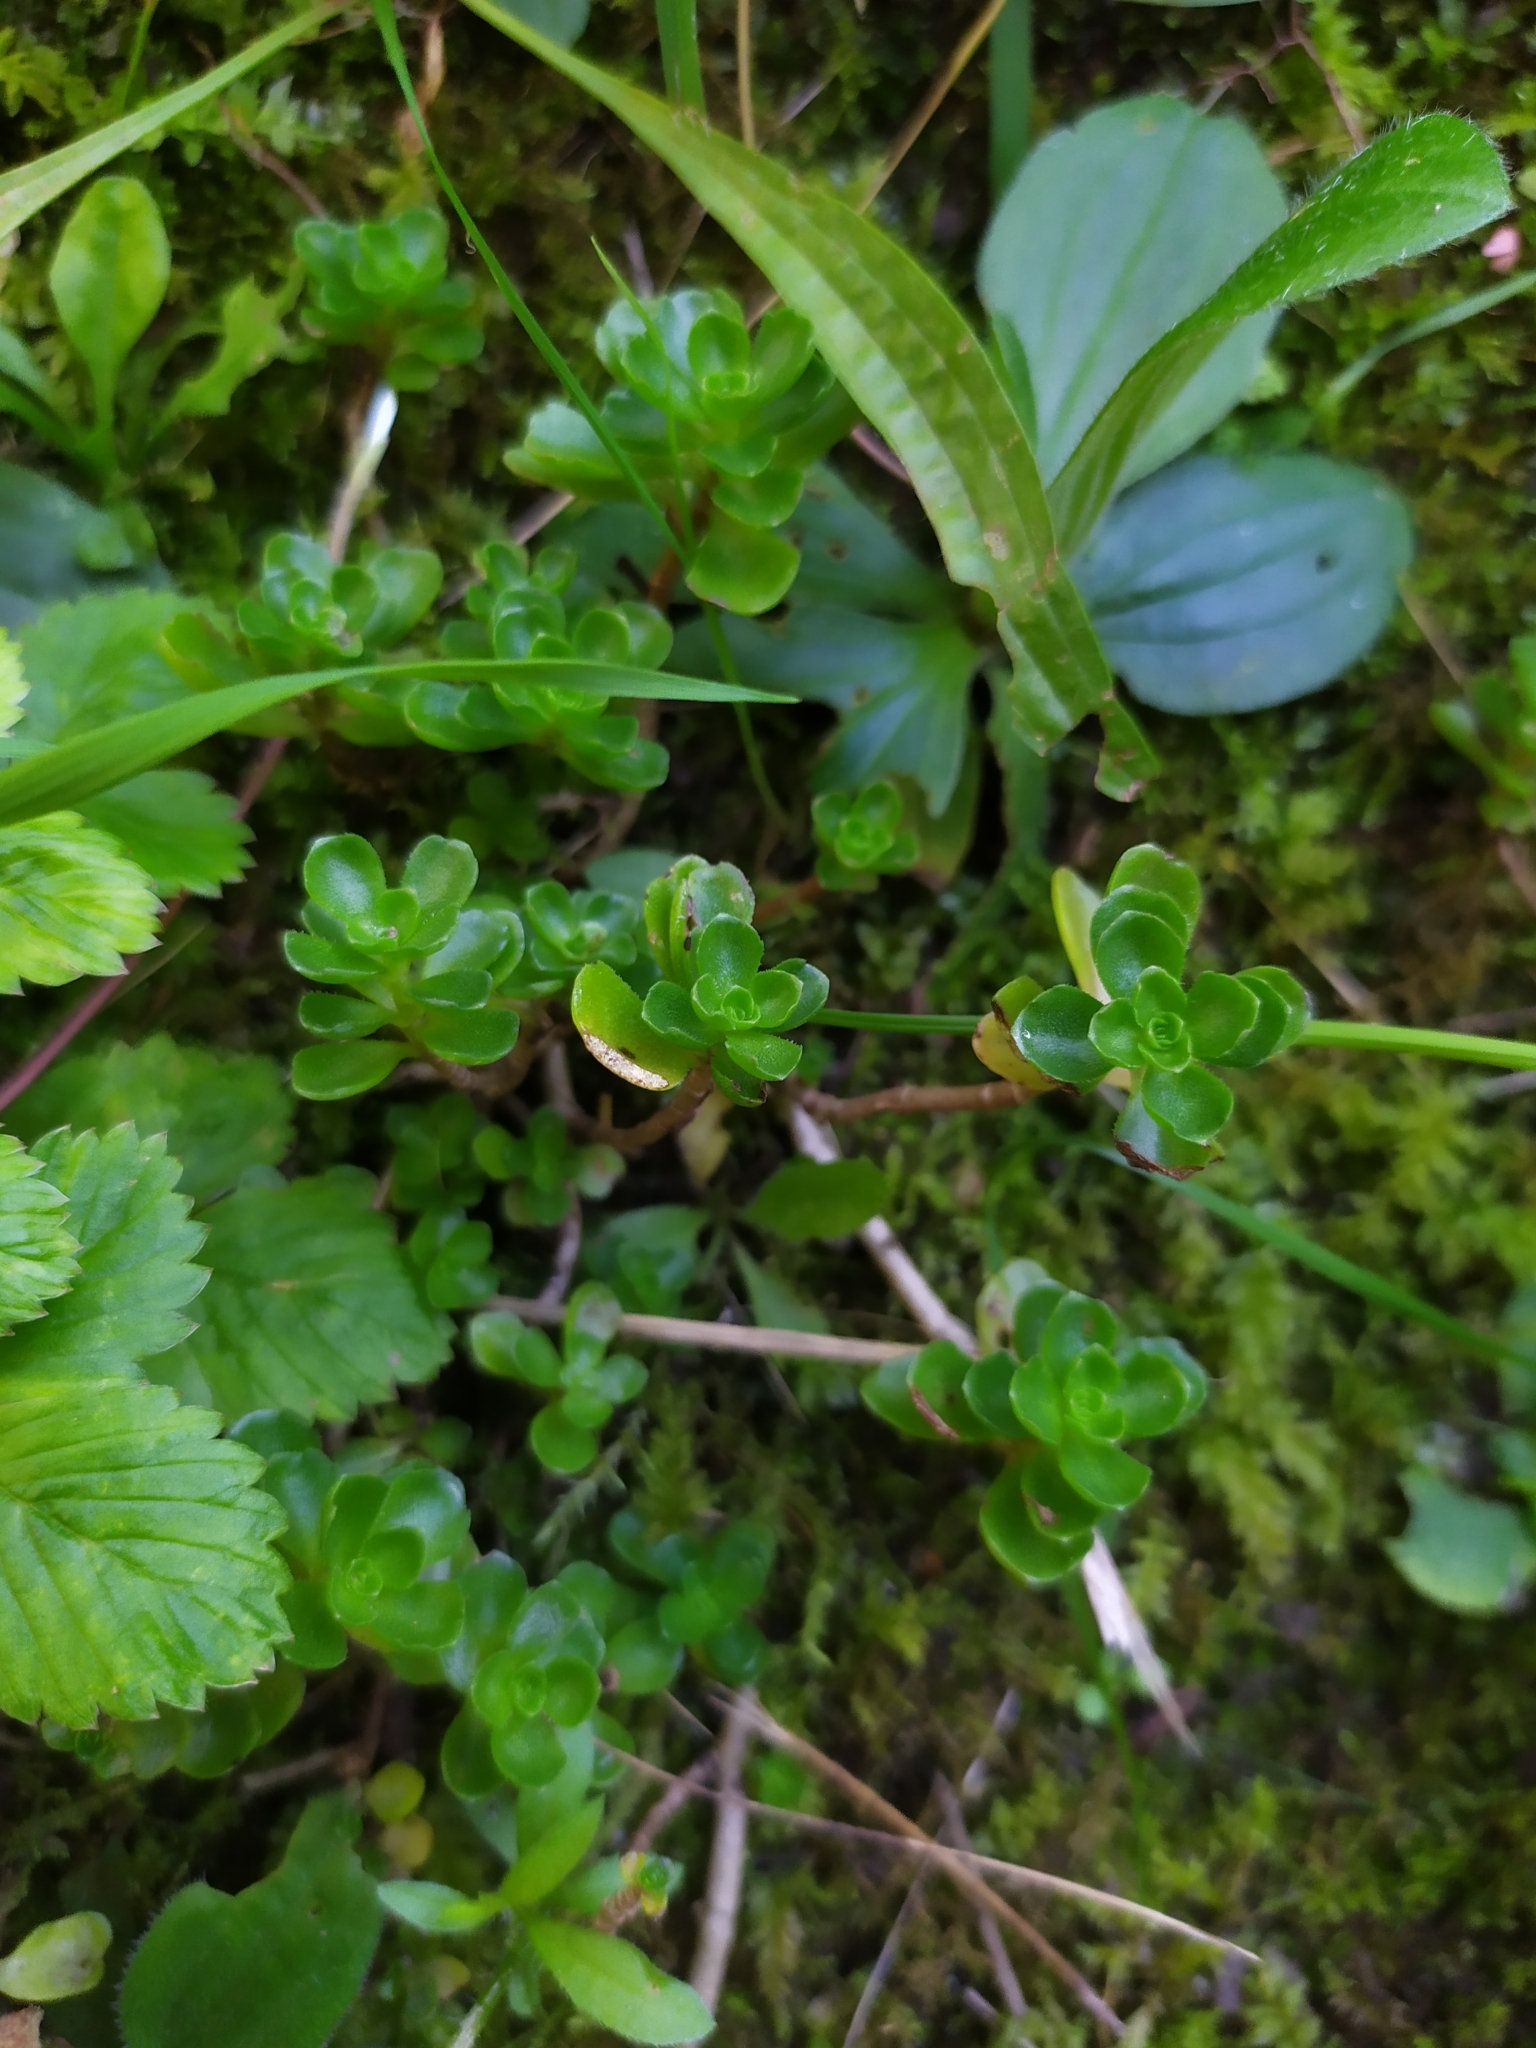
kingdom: Plantae
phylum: Tracheophyta
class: Magnoliopsida
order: Saxifragales
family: Crassulaceae
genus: Phedimus
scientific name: Phedimus spurius
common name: Caucasian stonecrop
